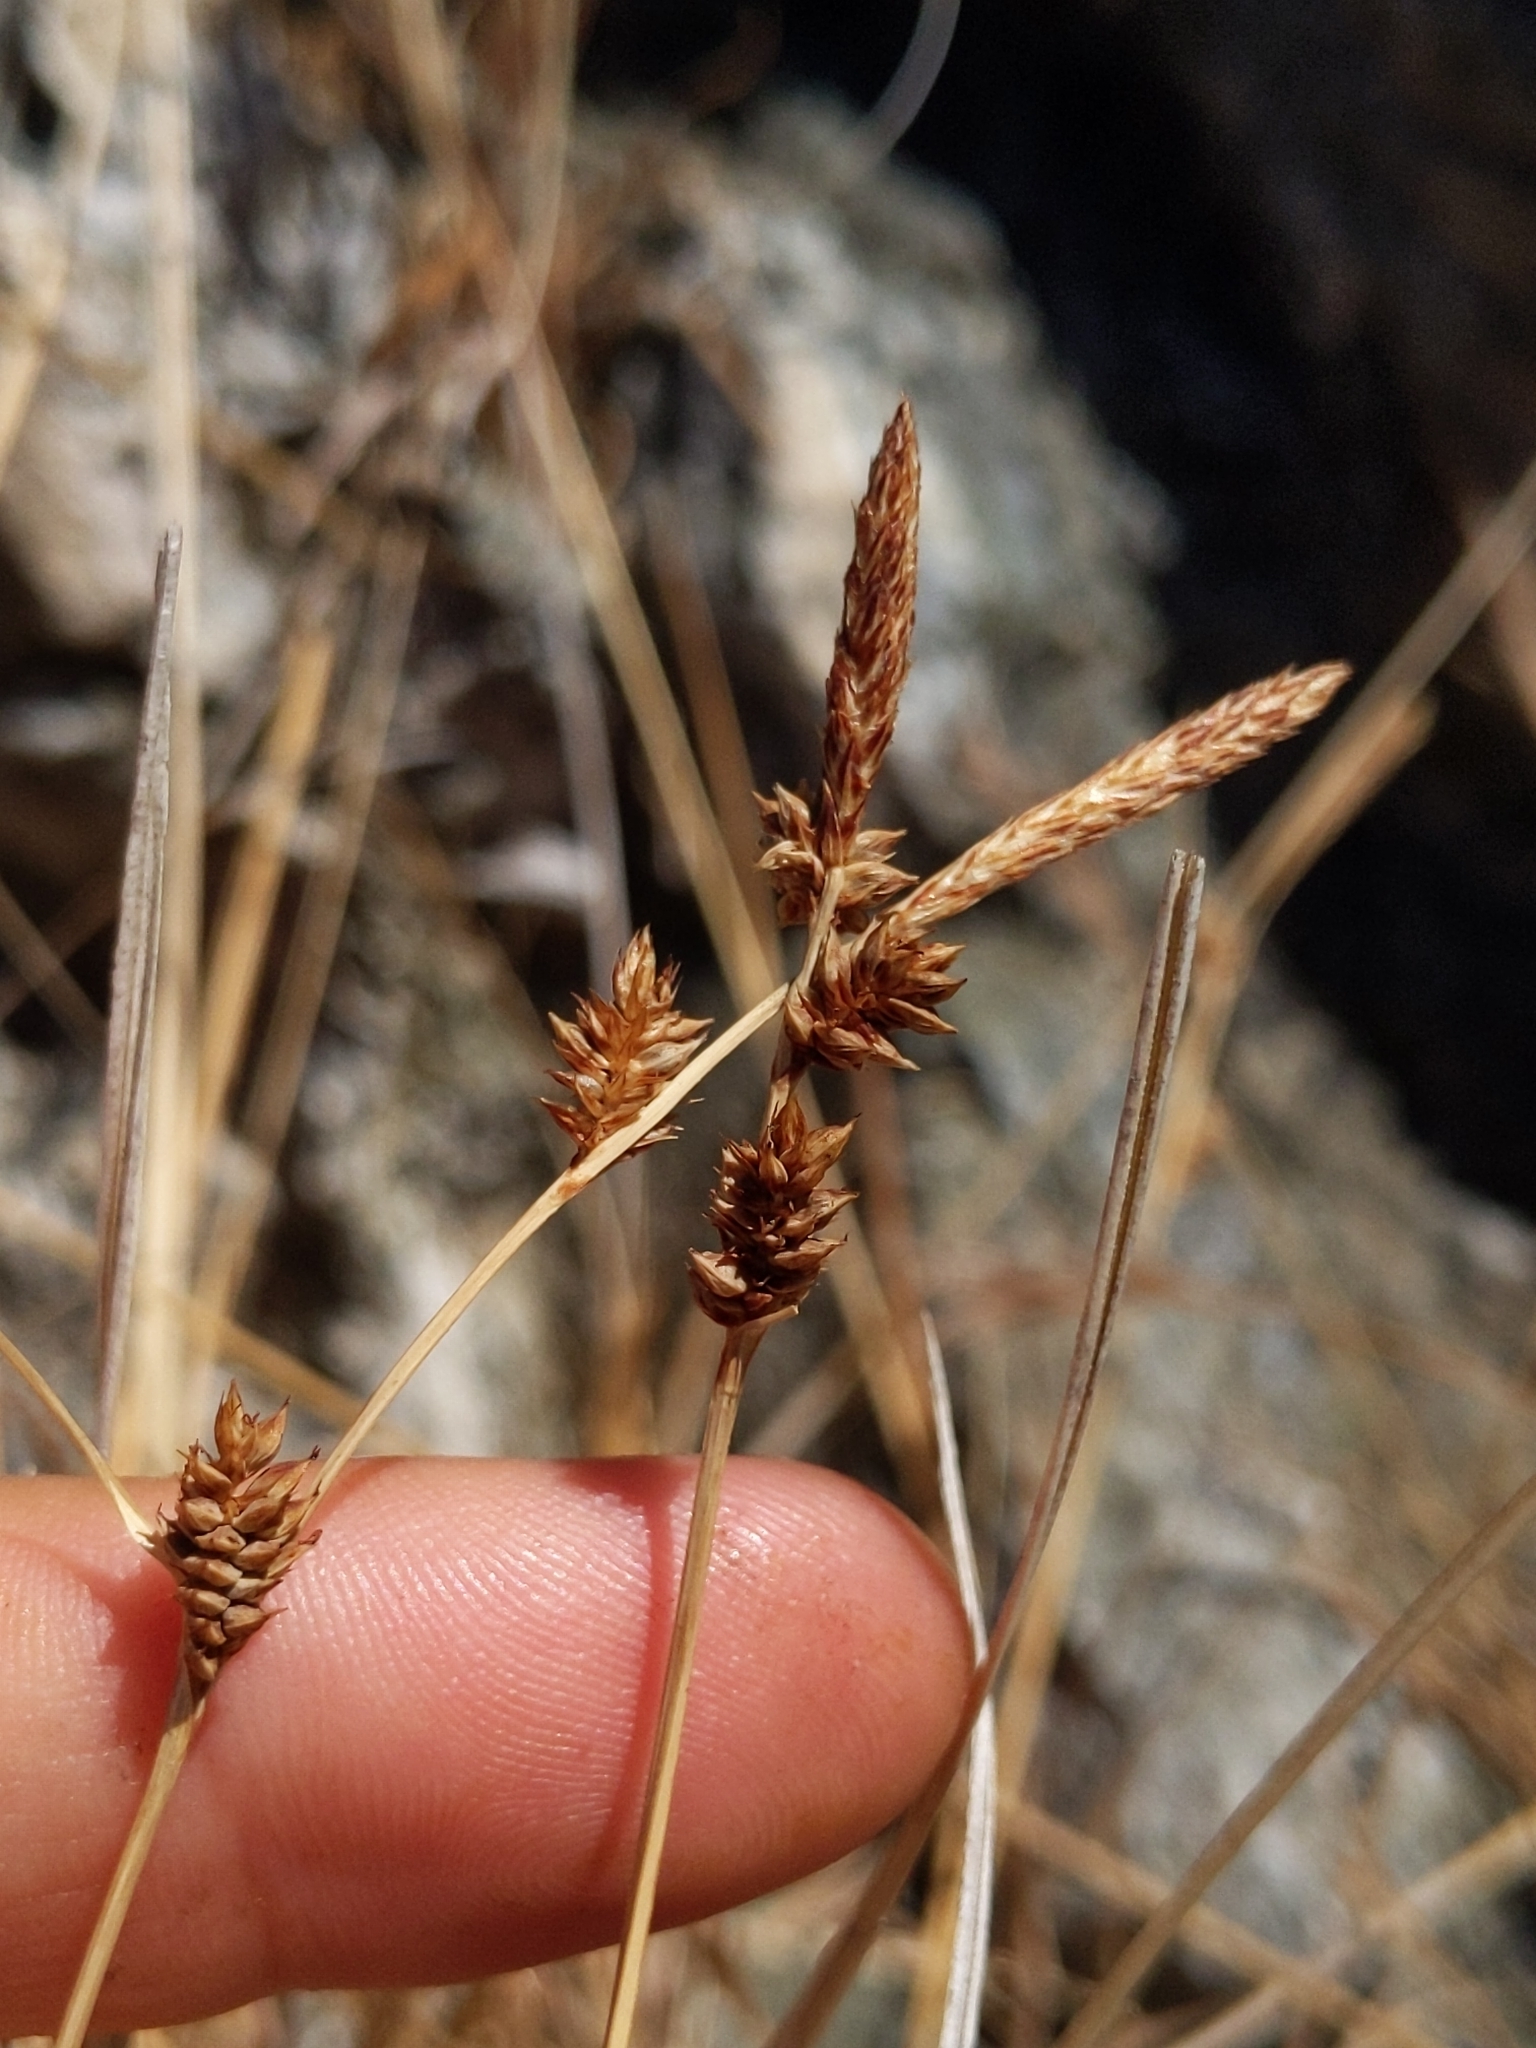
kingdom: Plantae
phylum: Tracheophyta
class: Liliopsida
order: Poales
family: Cyperaceae
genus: Carex
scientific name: Carex serratodens
